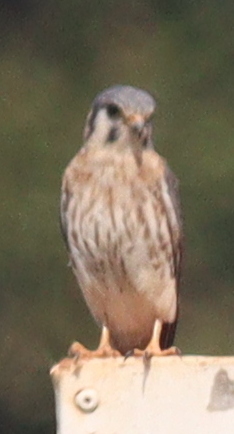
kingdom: Animalia
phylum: Chordata
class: Aves
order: Falconiformes
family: Falconidae
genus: Falco
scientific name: Falco sparverius
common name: American kestrel
